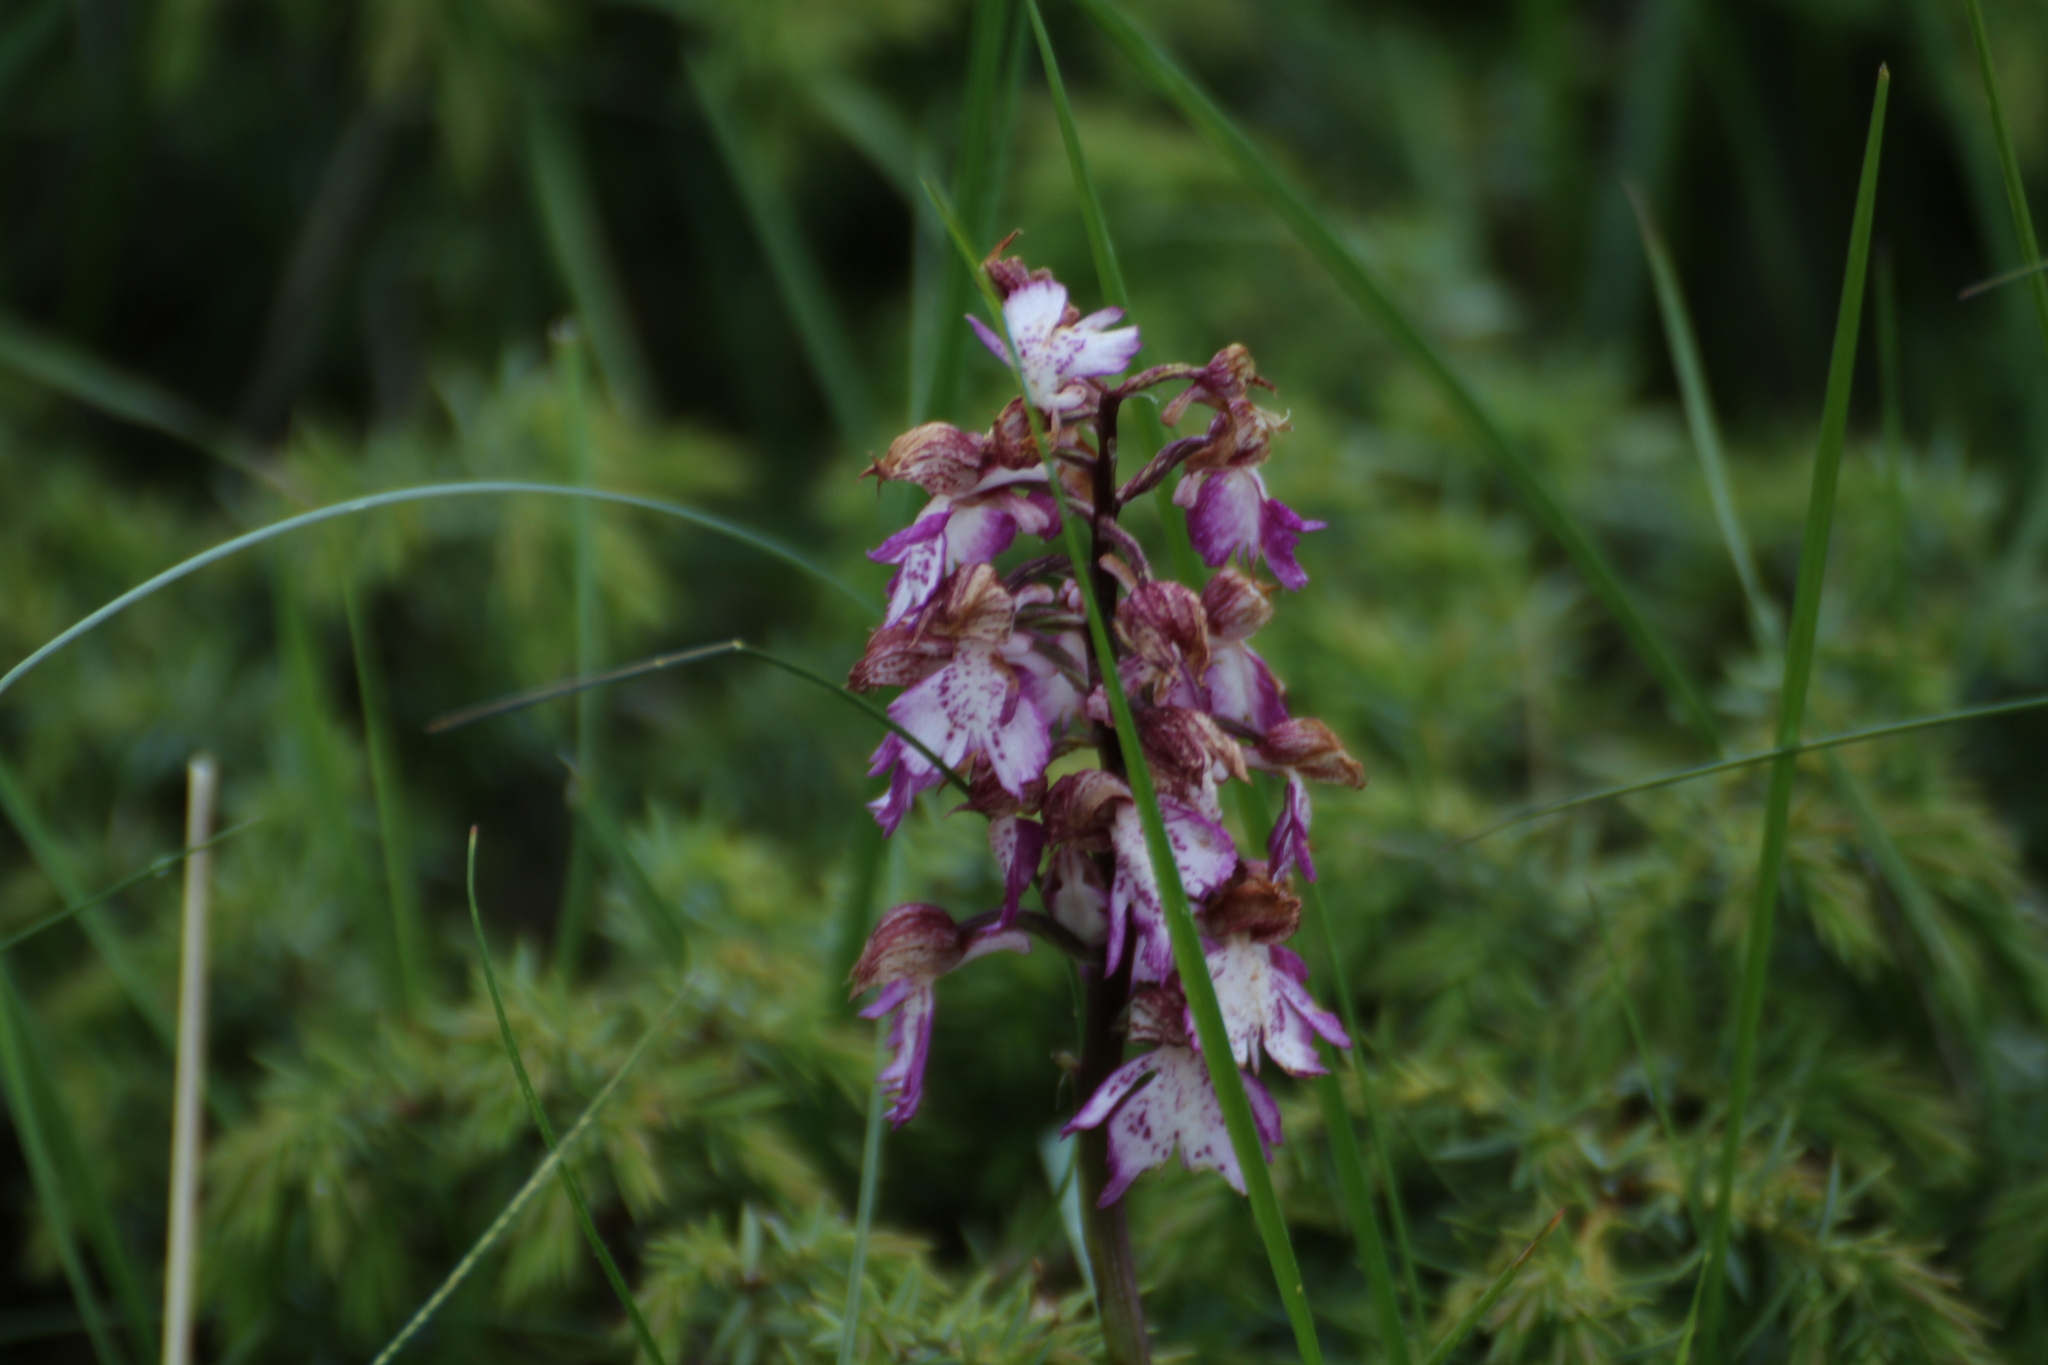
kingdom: Plantae
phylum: Tracheophyta
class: Liliopsida
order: Asparagales
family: Orchidaceae
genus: Orchis
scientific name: Orchis purpurea
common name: Lady orchid
